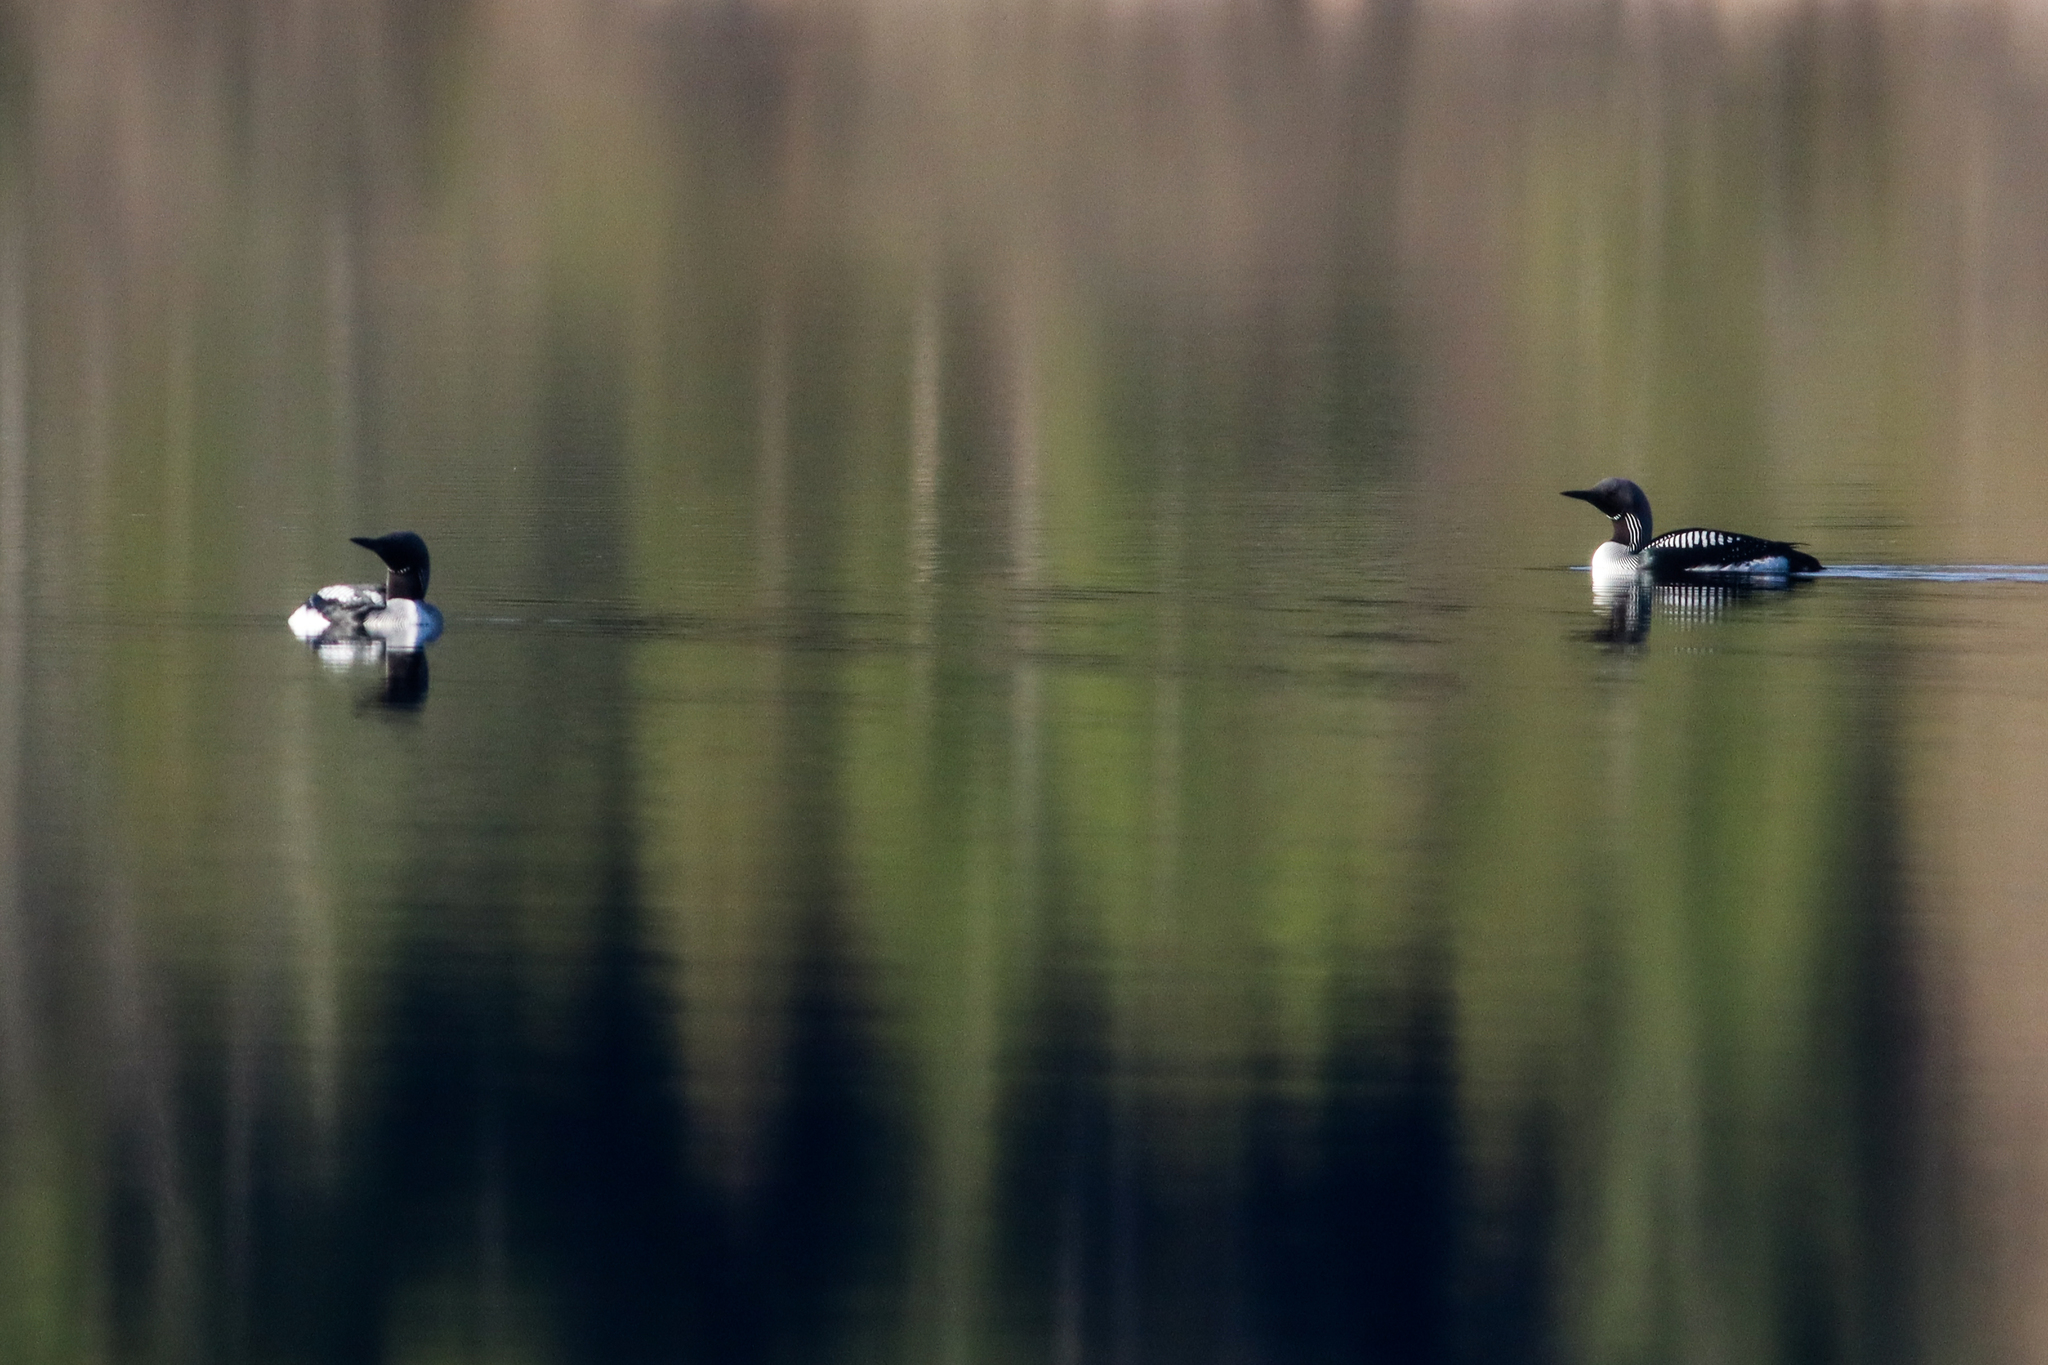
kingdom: Animalia
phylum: Chordata
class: Aves
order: Gaviiformes
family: Gaviidae
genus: Gavia
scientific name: Gavia arctica
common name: Black-throated loon
